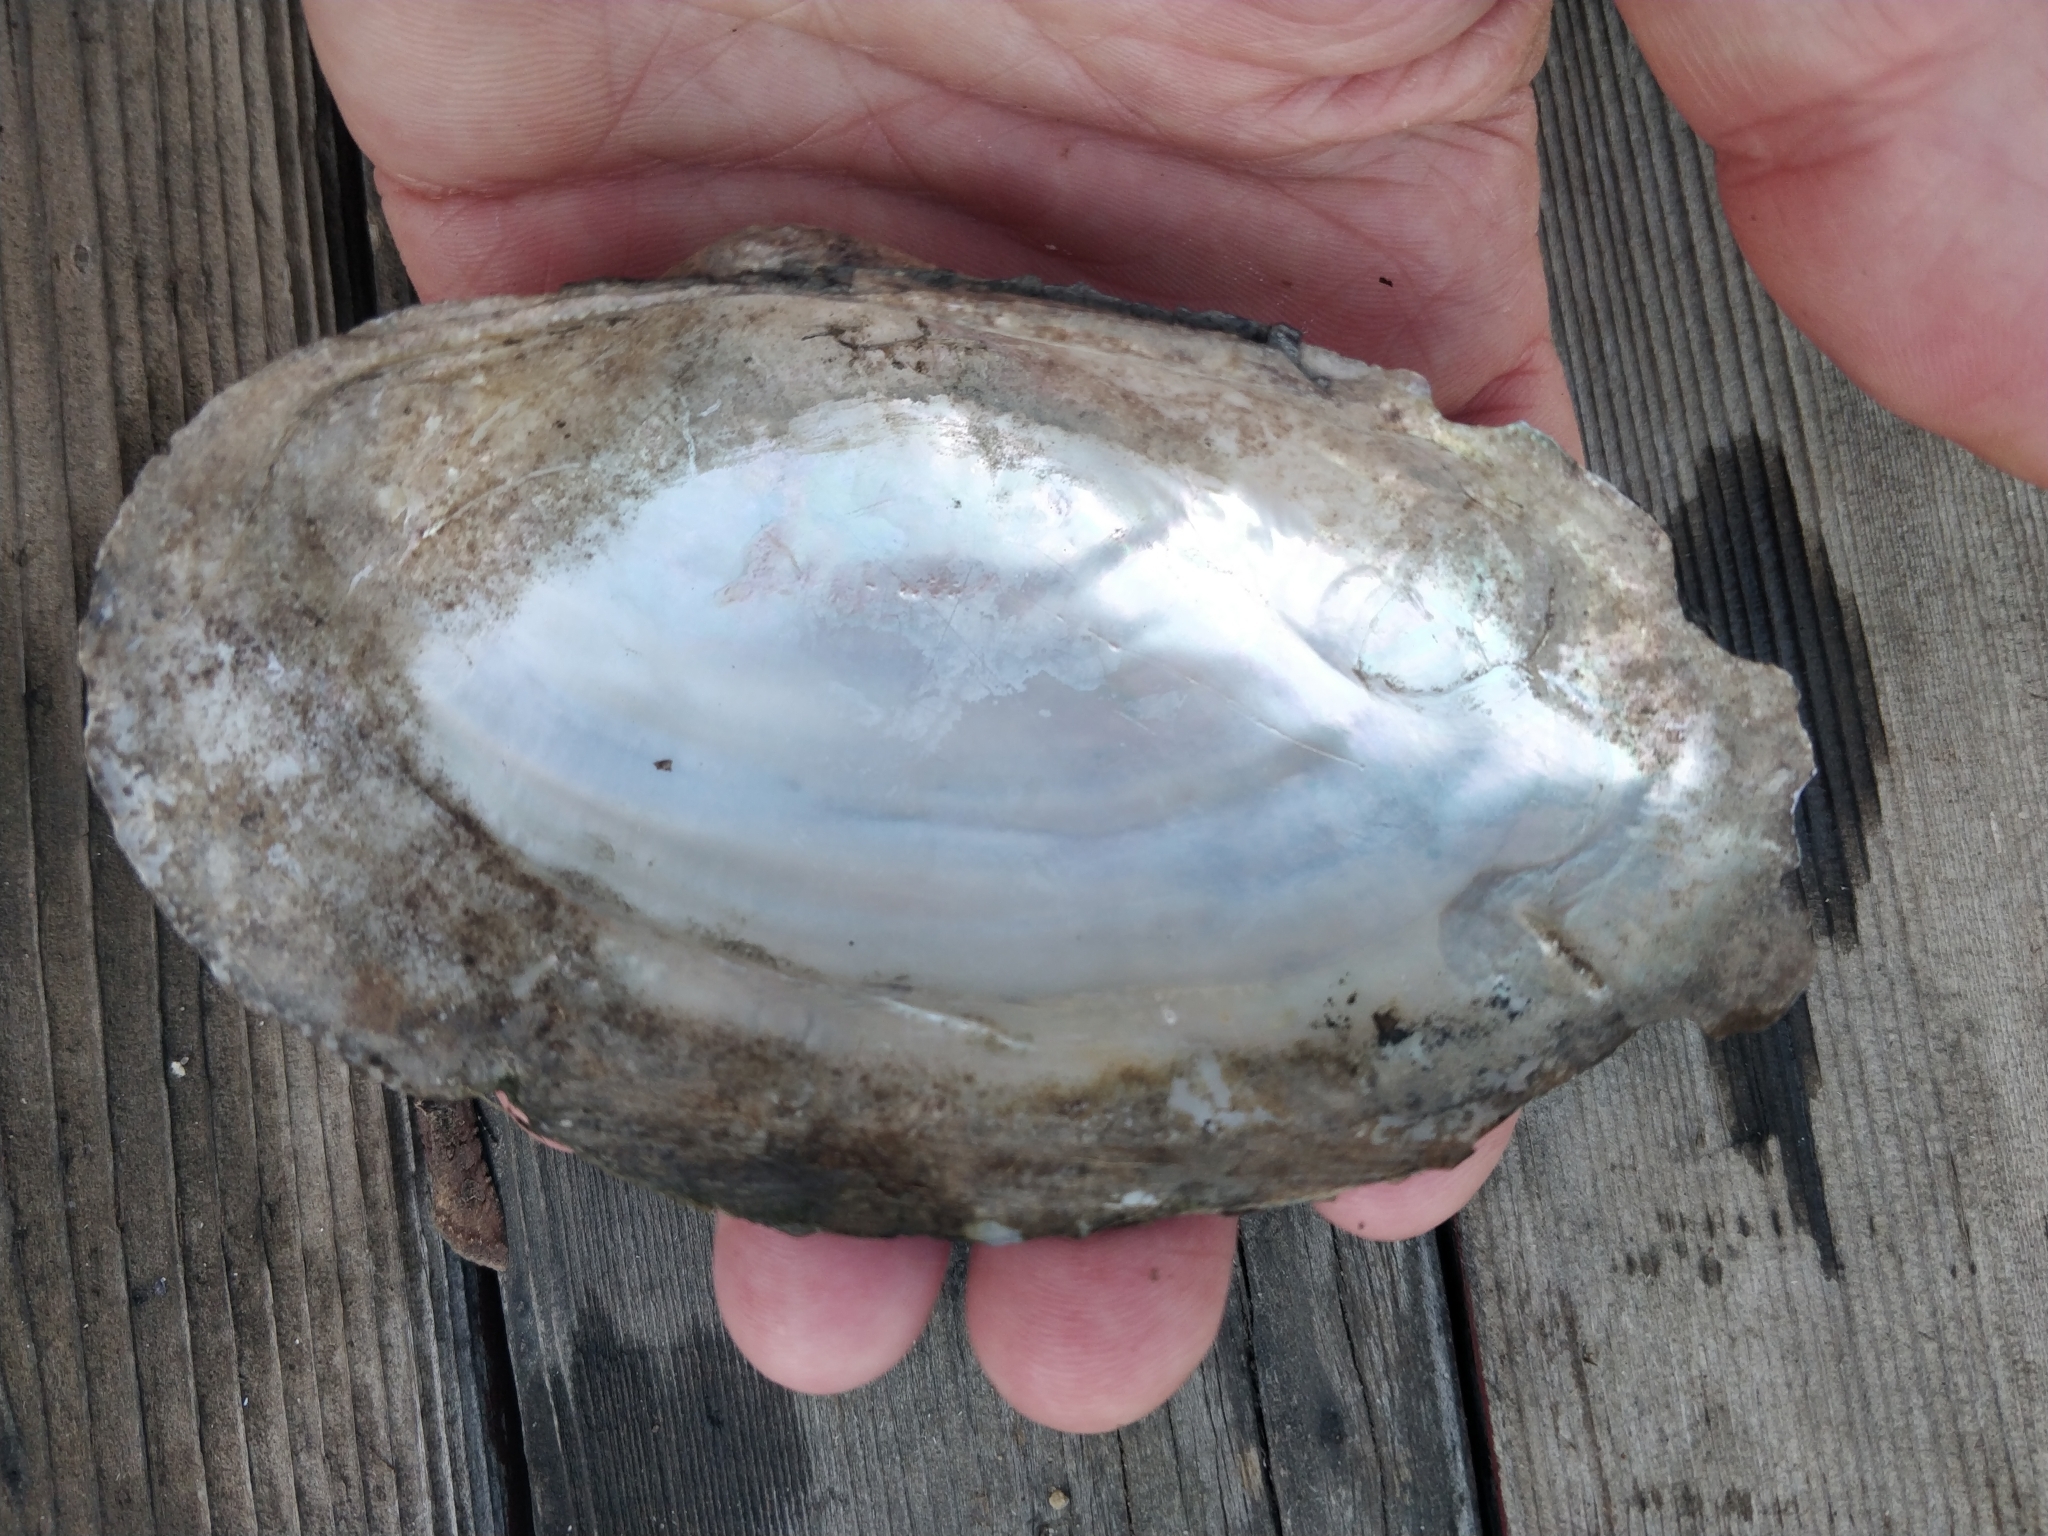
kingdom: Animalia
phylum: Mollusca
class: Bivalvia
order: Unionida
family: Unionidae
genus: Pyganodon
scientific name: Pyganodon grandis
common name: Giant floater
